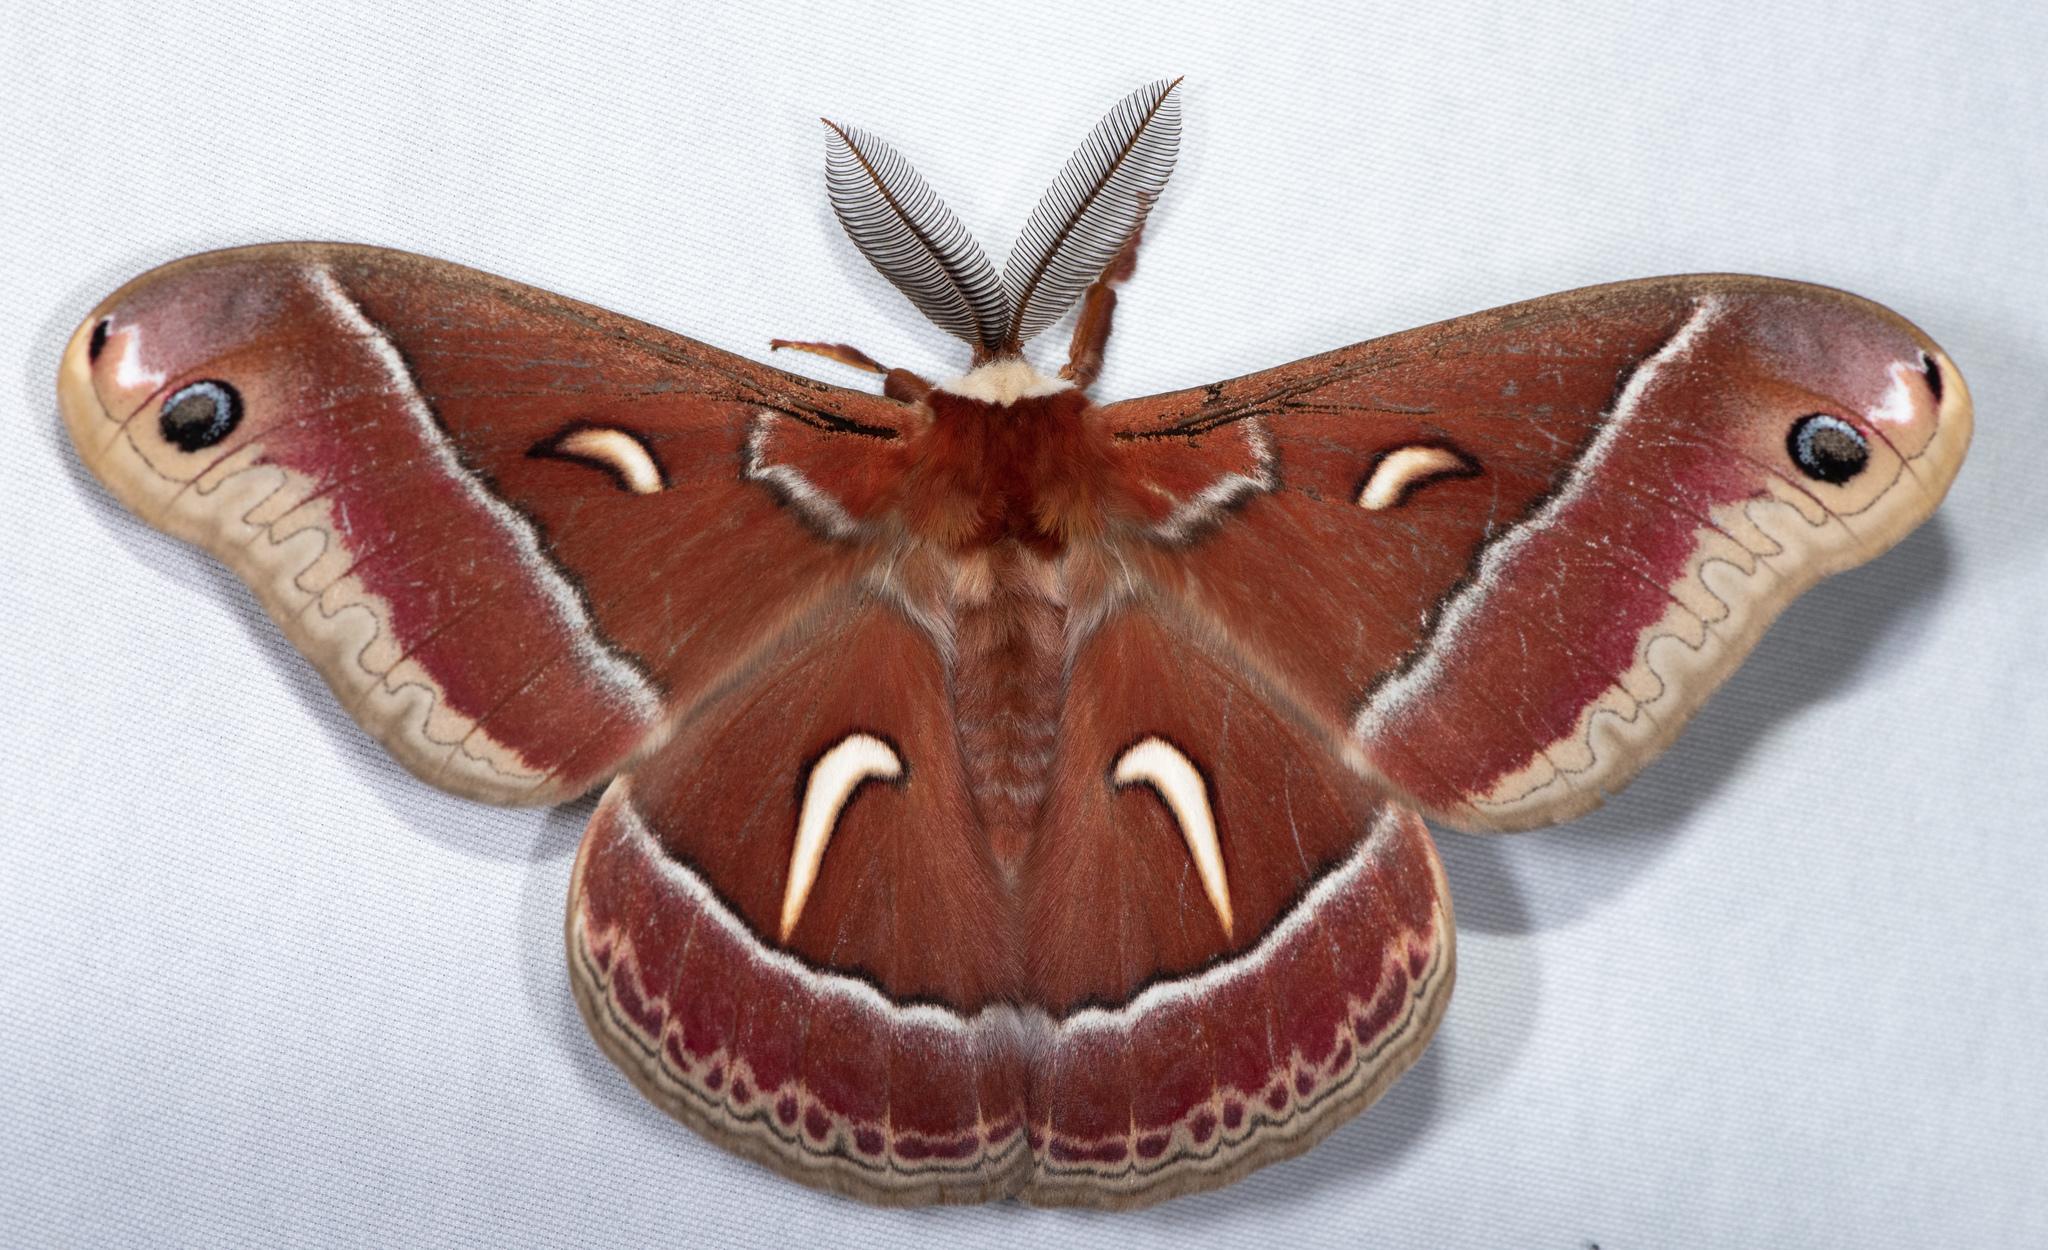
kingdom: Animalia
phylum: Arthropoda
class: Insecta
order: Lepidoptera
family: Saturniidae
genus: Hyalophora
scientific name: Hyalophora euryalus
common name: Ceanothus silkmoth
